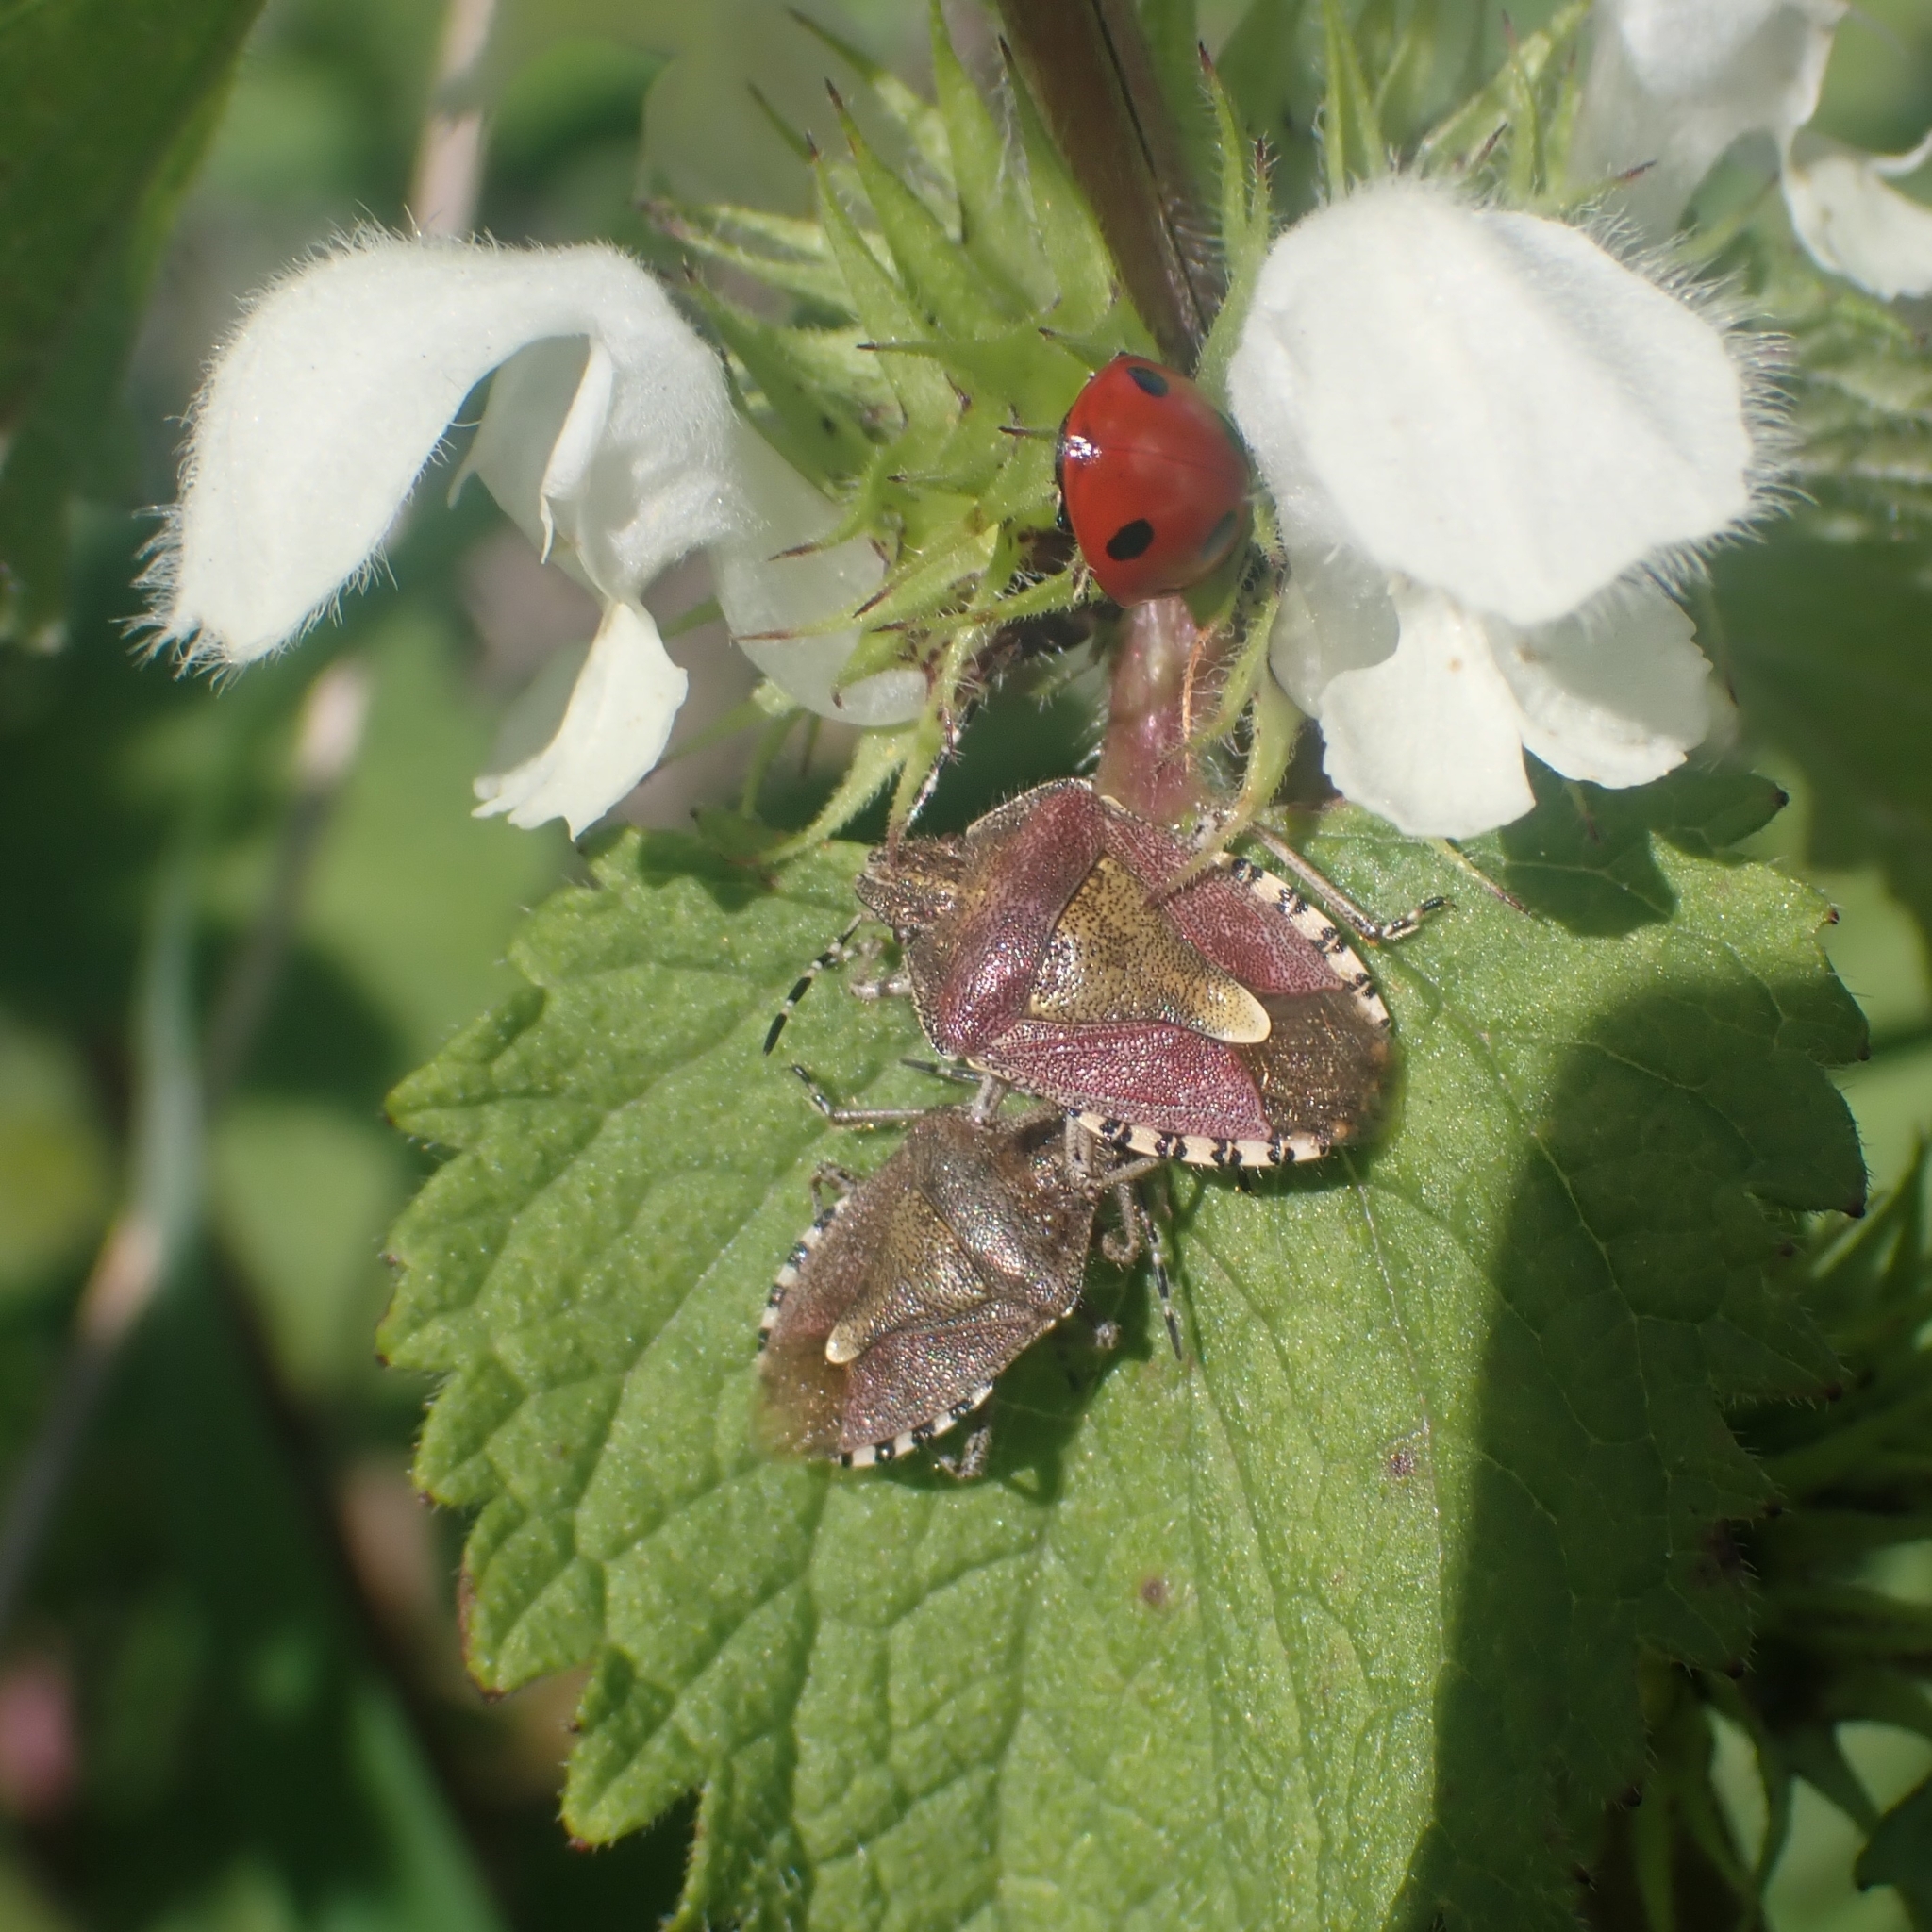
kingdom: Animalia
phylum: Arthropoda
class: Insecta
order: Hemiptera
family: Pentatomidae
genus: Dolycoris
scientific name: Dolycoris baccarum
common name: Sloe bug
